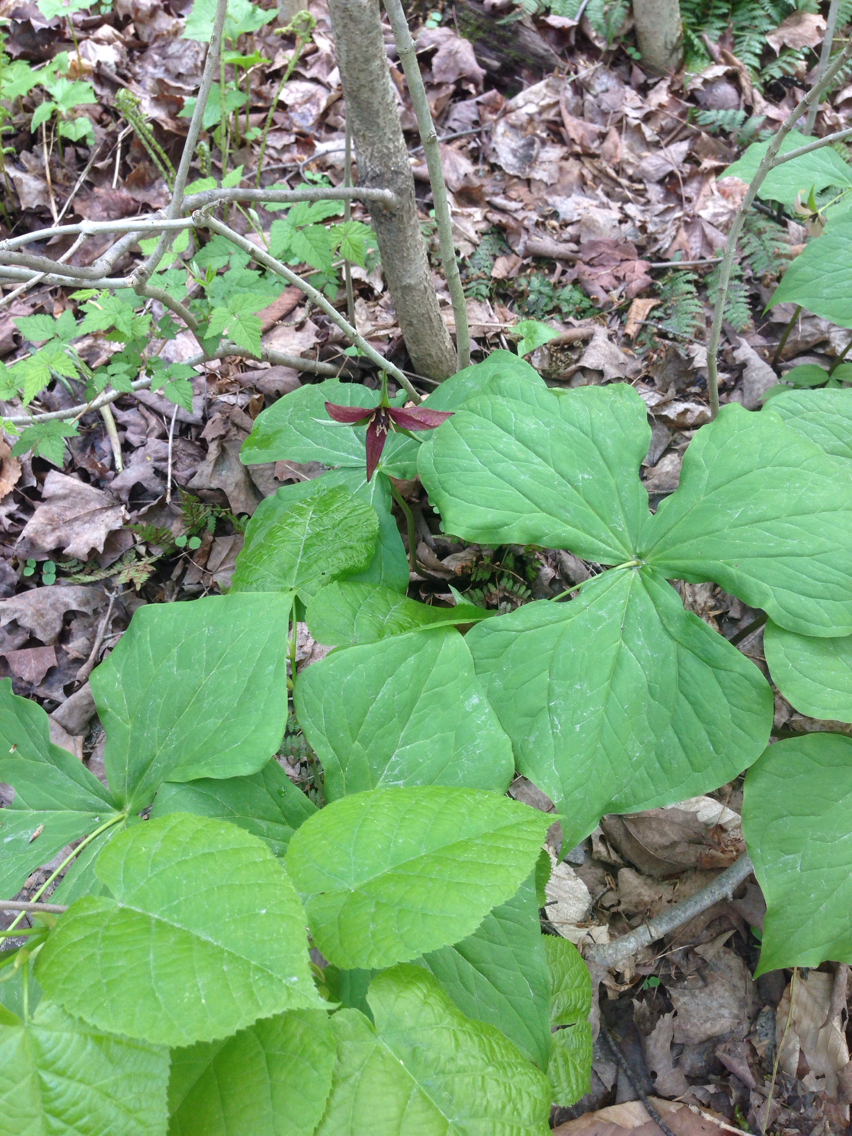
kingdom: Plantae
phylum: Tracheophyta
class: Liliopsida
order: Liliales
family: Melanthiaceae
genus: Trillium
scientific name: Trillium erectum
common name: Purple trillium
